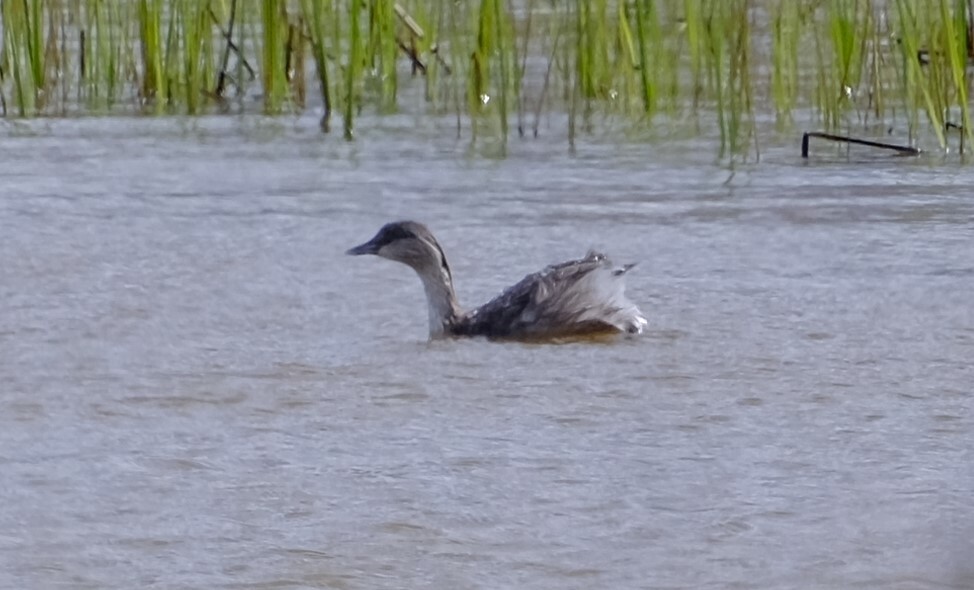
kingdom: Animalia
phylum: Chordata
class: Aves
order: Podicipediformes
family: Podicipedidae
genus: Poliocephalus
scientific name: Poliocephalus poliocephalus
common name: Hoary-headed grebe
